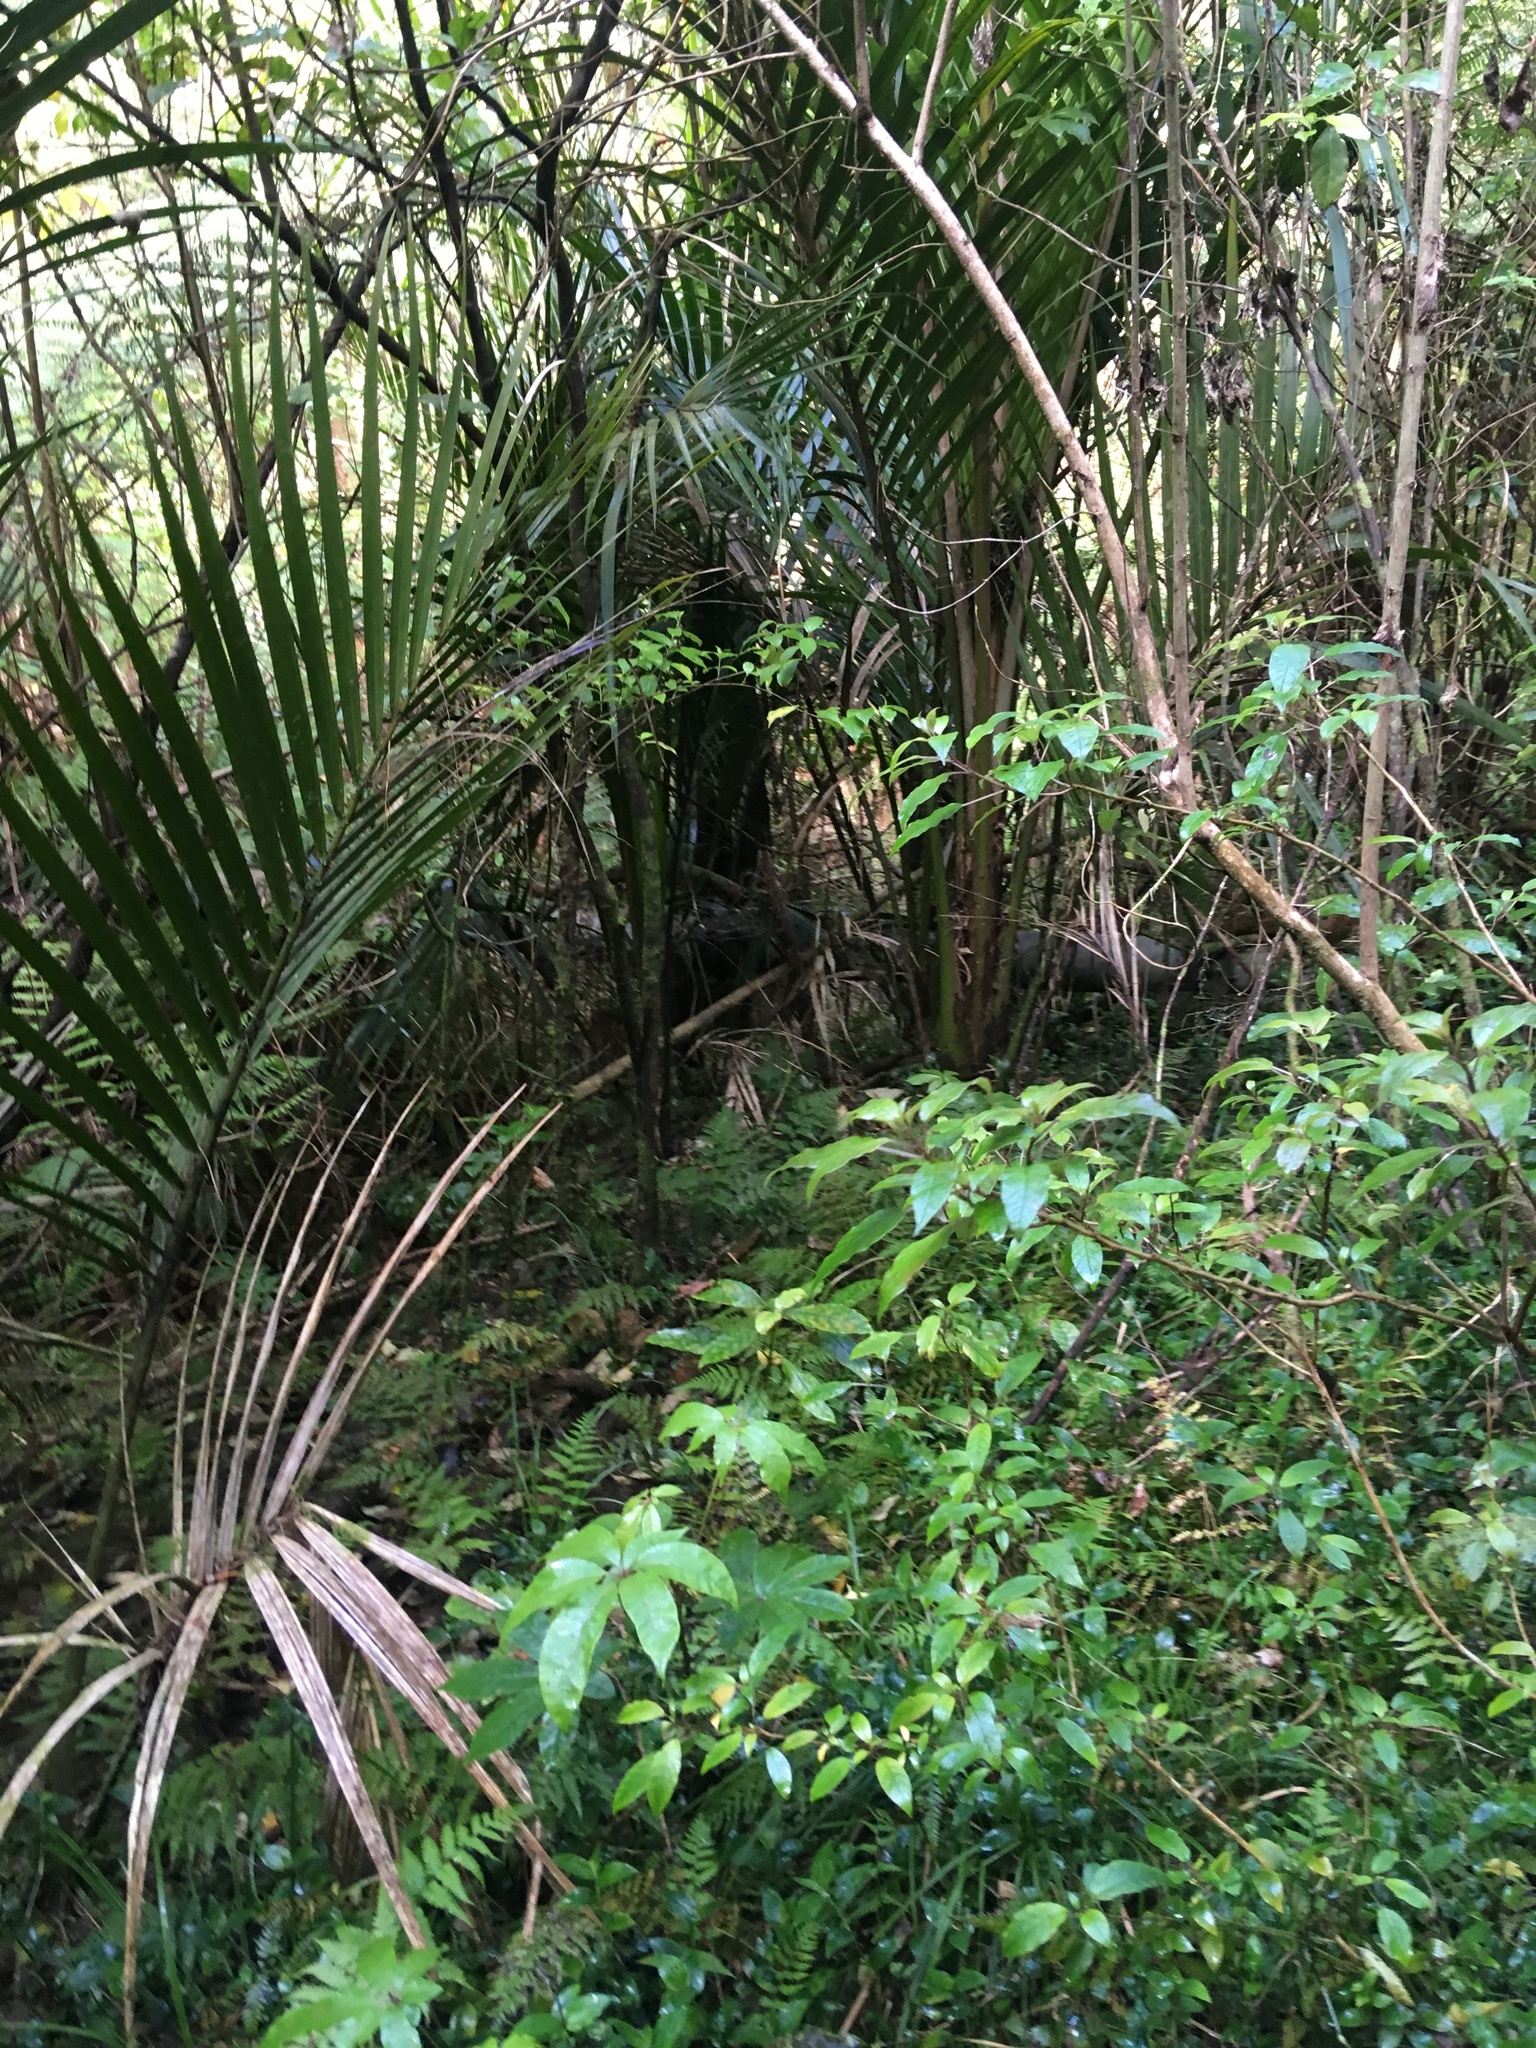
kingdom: Plantae
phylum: Tracheophyta
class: Magnoliopsida
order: Myrtales
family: Onagraceae
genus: Fuchsia
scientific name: Fuchsia excorticata
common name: Tree fuchsia
